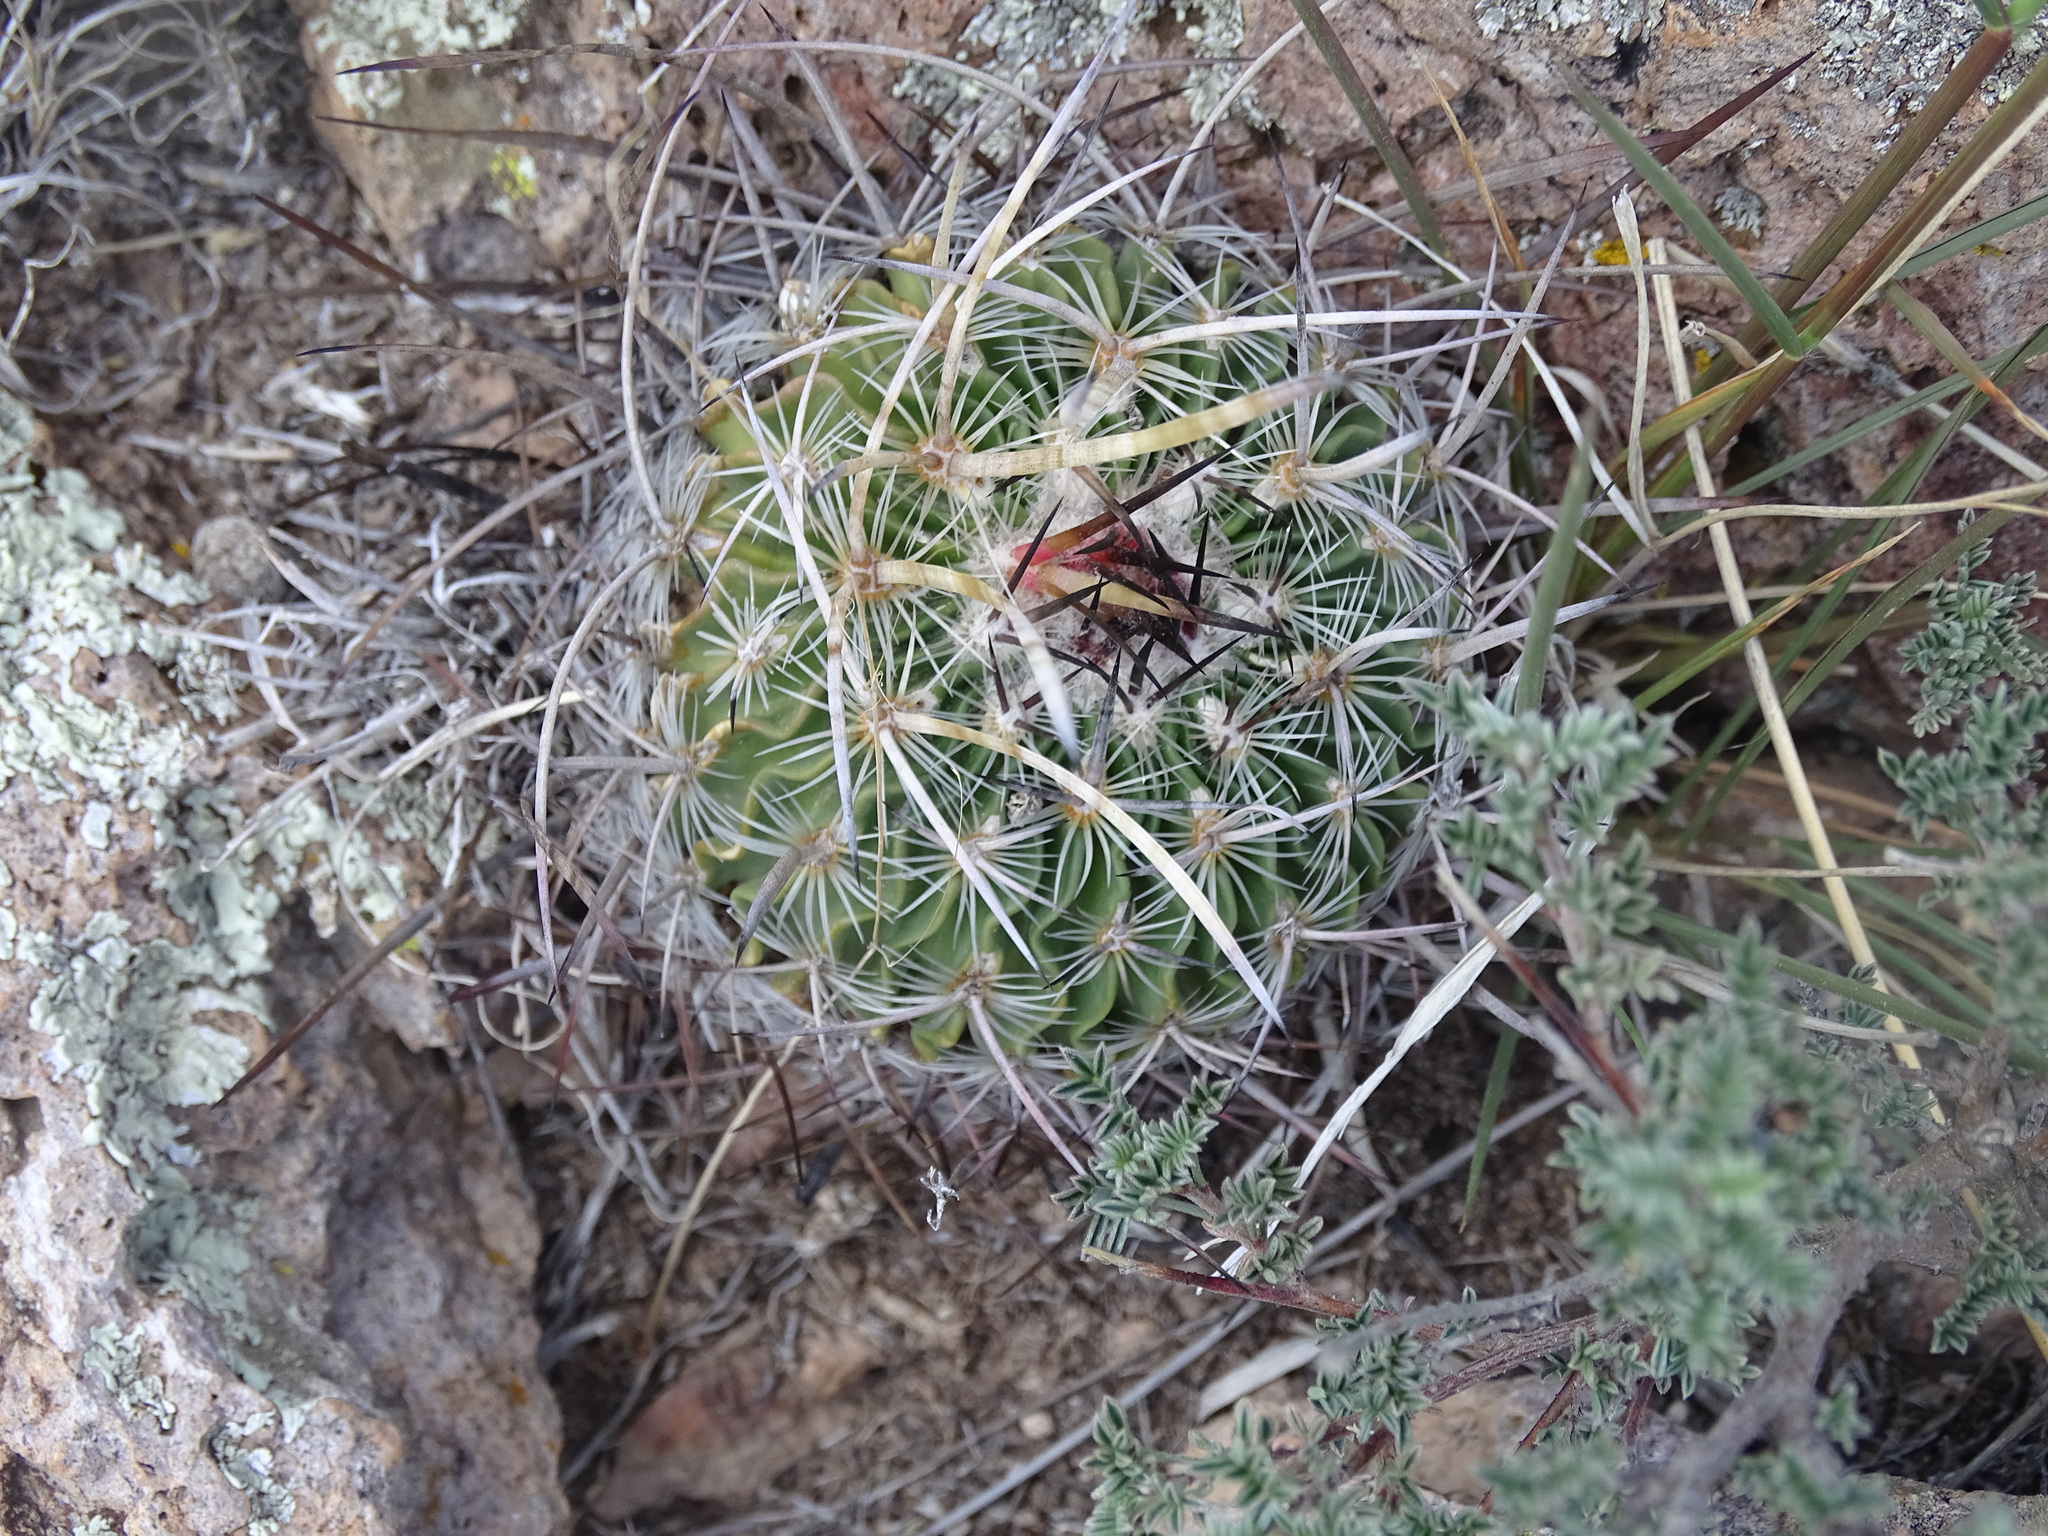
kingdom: Plantae
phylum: Tracheophyta
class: Magnoliopsida
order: Caryophyllales
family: Cactaceae
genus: Stenocactus
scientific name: Stenocactus multicostatus
